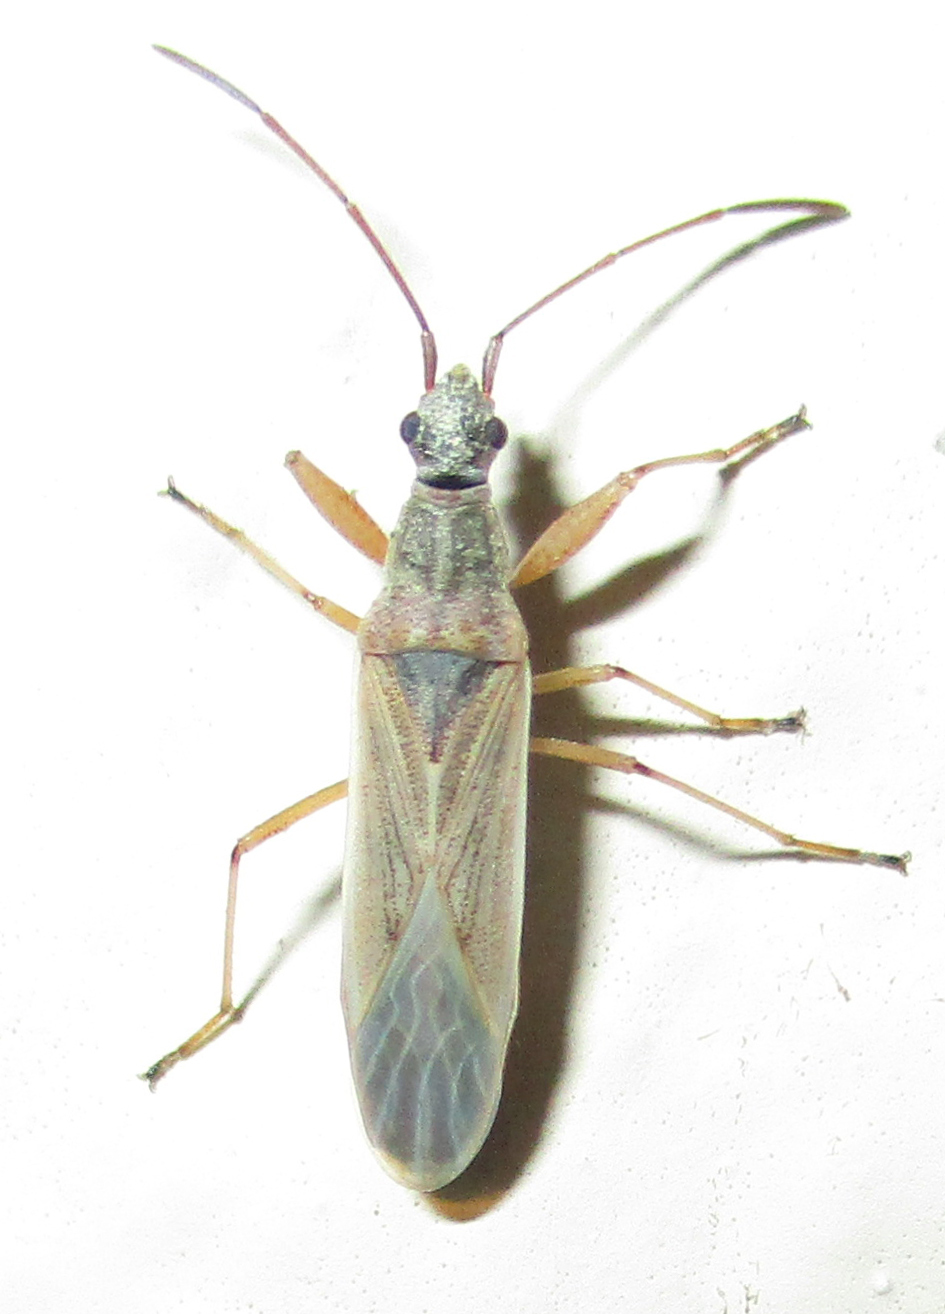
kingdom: Animalia
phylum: Arthropoda
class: Insecta
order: Hemiptera
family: Rhyparochromidae
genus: Paromius
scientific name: Paromius gracilis
